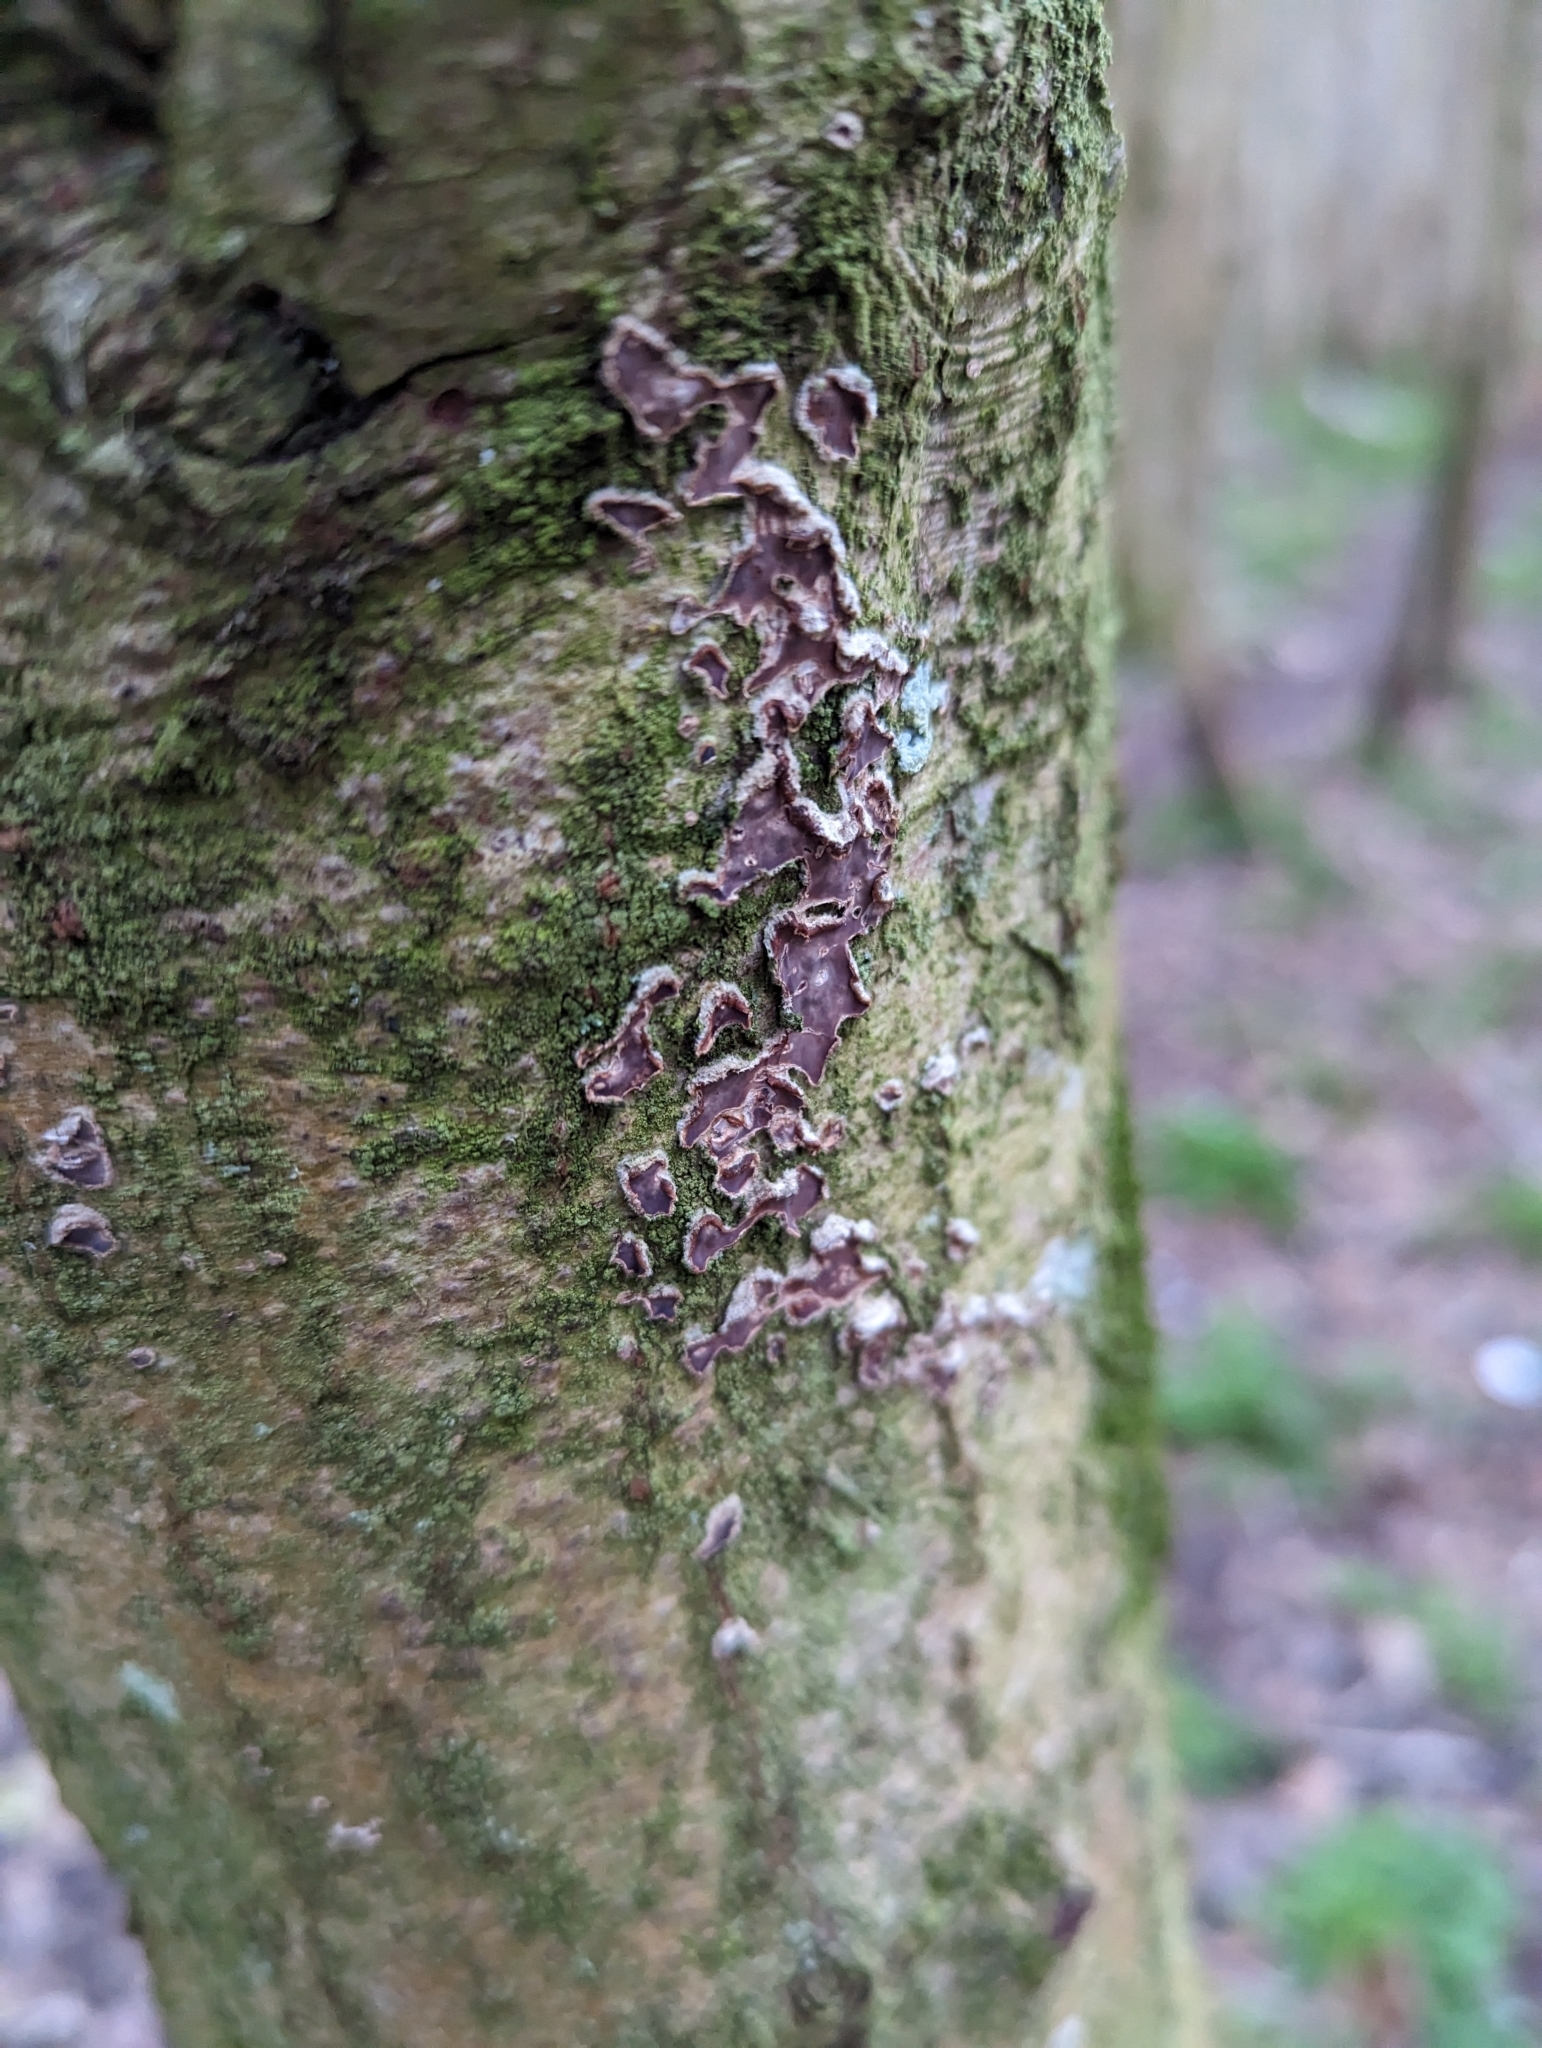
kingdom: Fungi
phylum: Basidiomycota
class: Agaricomycetes
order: Agaricales
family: Cyphellaceae
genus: Chondrostereum
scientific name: Chondrostereum purpureum
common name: Silver leaf disease
